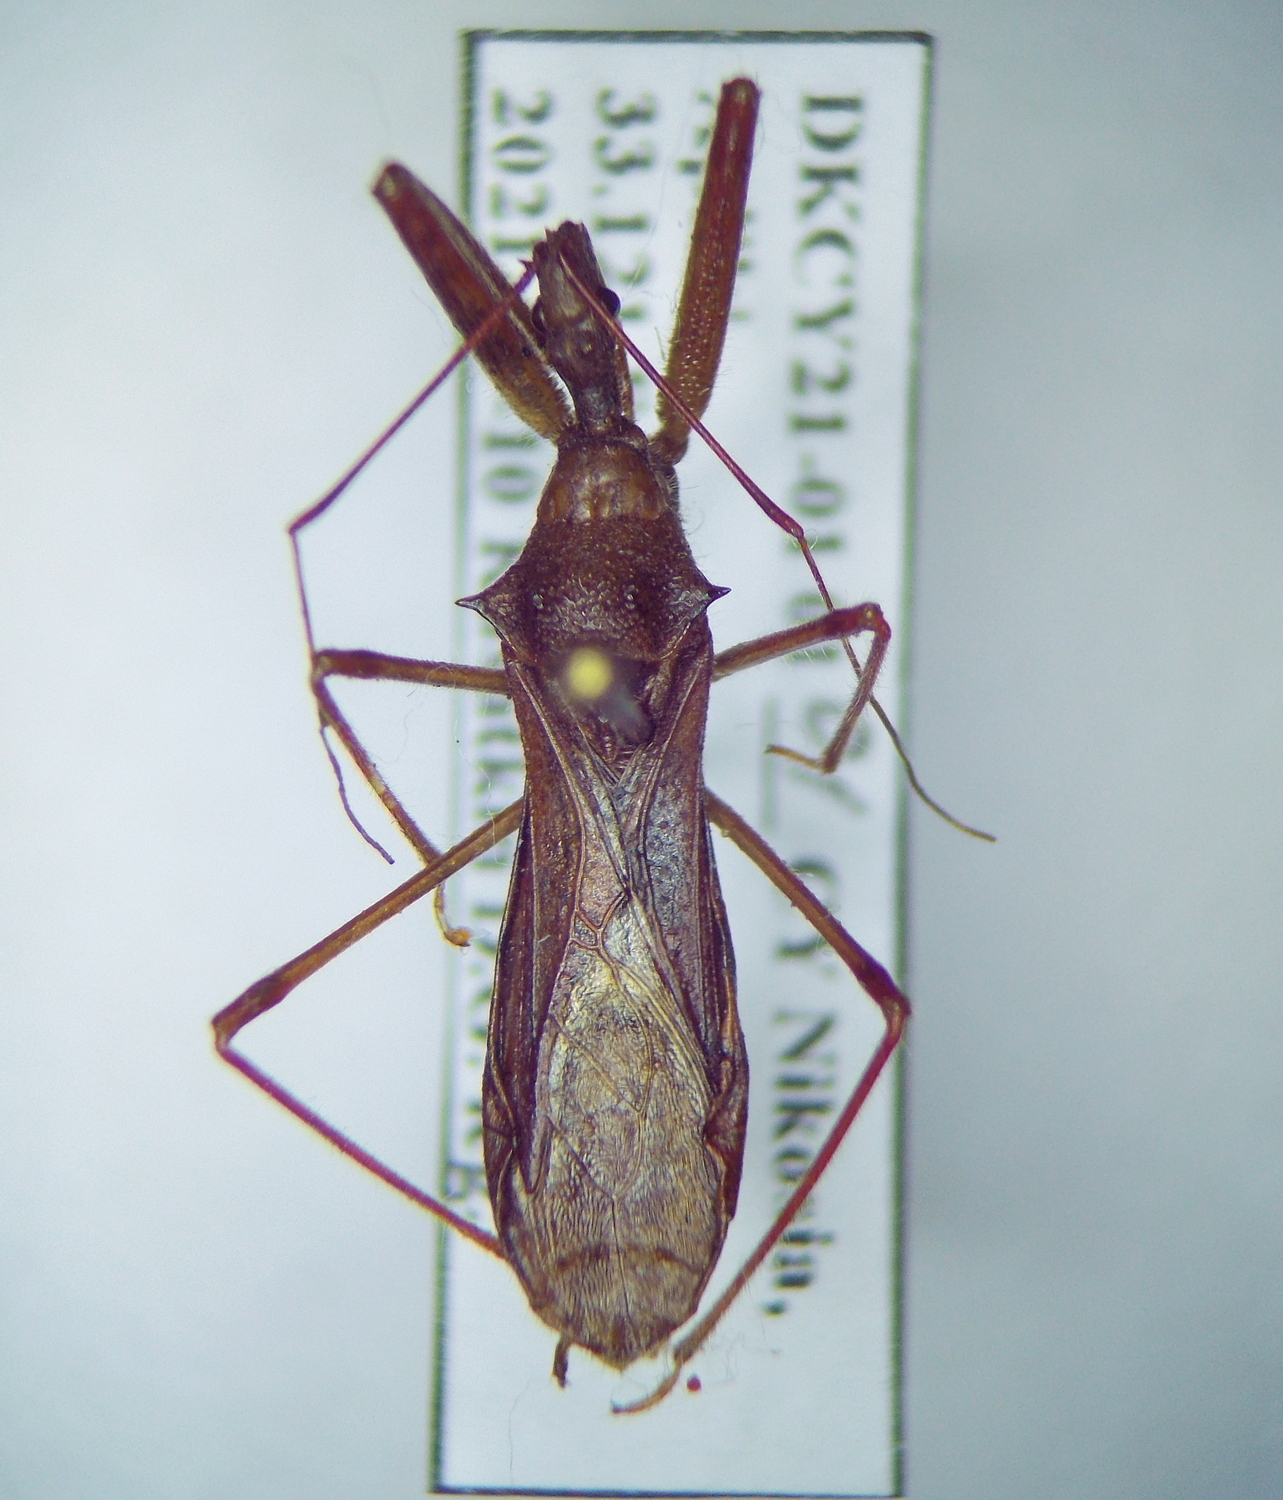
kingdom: Animalia
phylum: Arthropoda
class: Insecta
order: Hemiptera
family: Reduviidae
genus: Nagusta
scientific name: Nagusta goedelii
